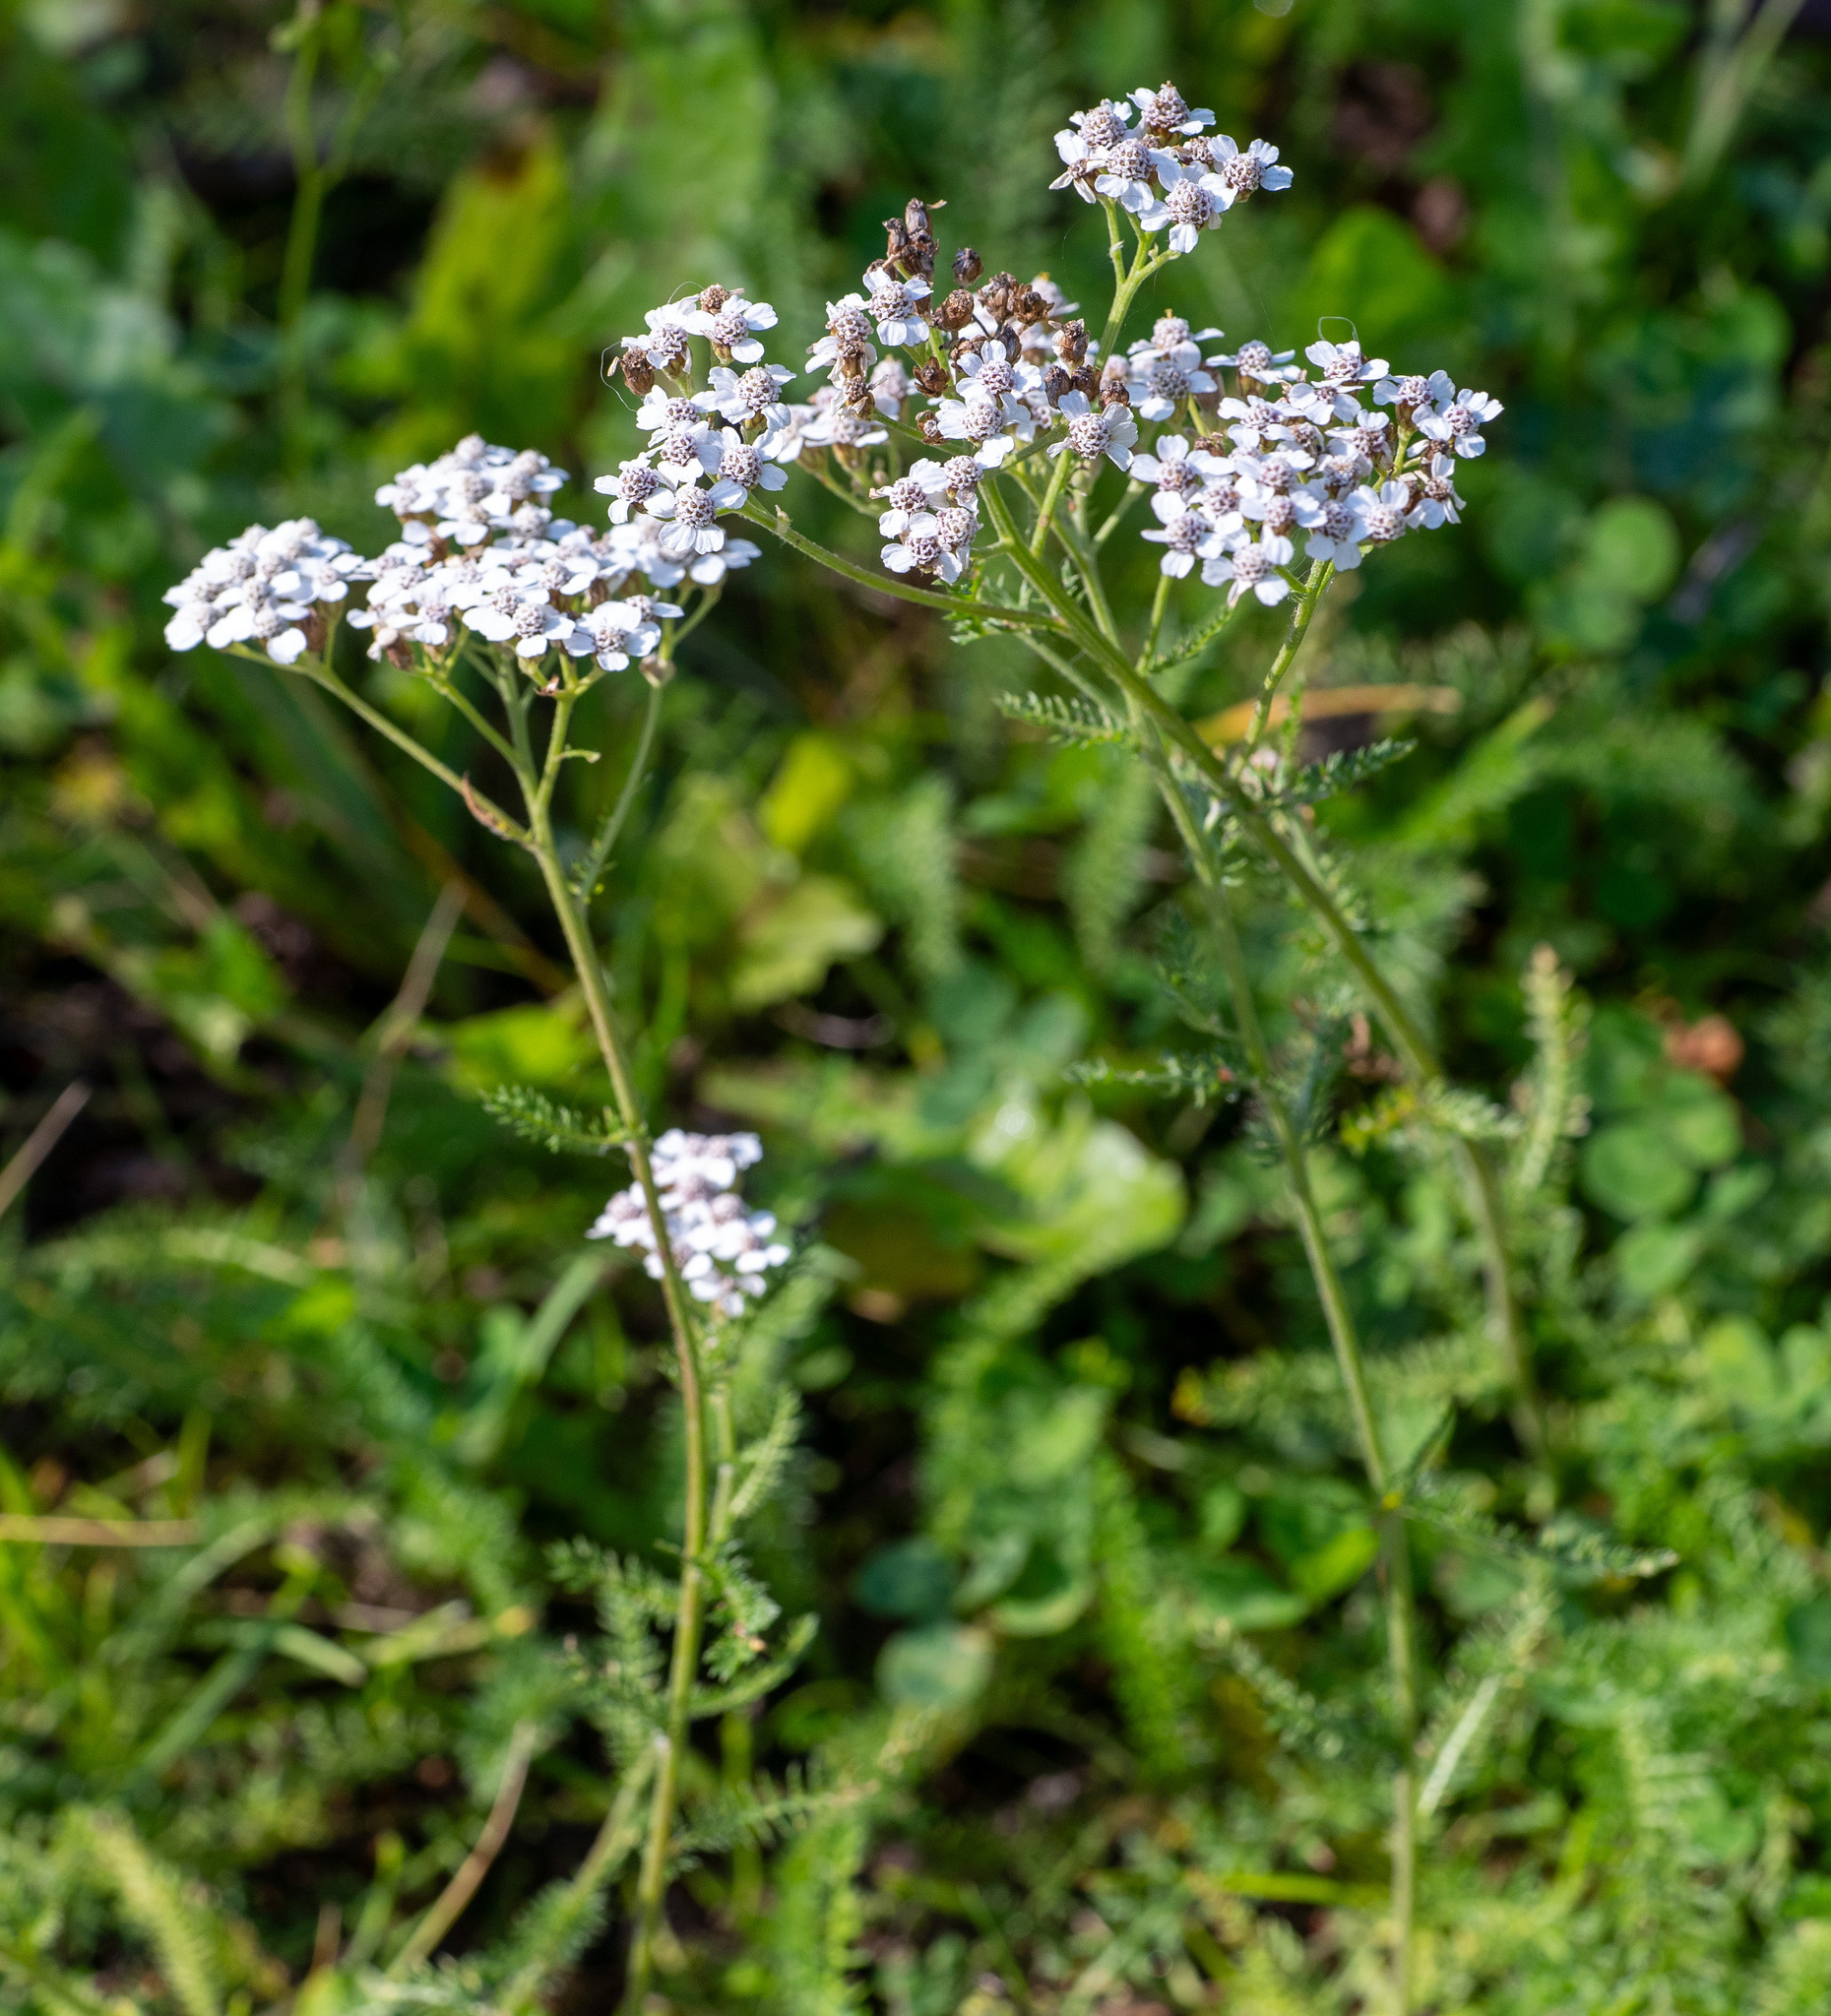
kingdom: Plantae
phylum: Tracheophyta
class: Magnoliopsida
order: Asterales
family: Asteraceae
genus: Achillea
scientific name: Achillea millefolium
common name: Yarrow
